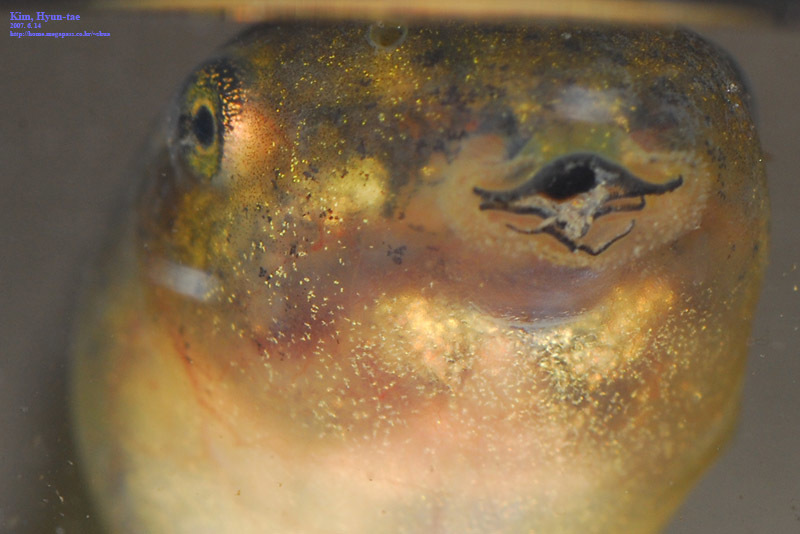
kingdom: Animalia
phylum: Chordata
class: Amphibia
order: Anura
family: Hylidae
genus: Dryophytes
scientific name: Dryophytes japonicus
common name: Japanese treefrog
